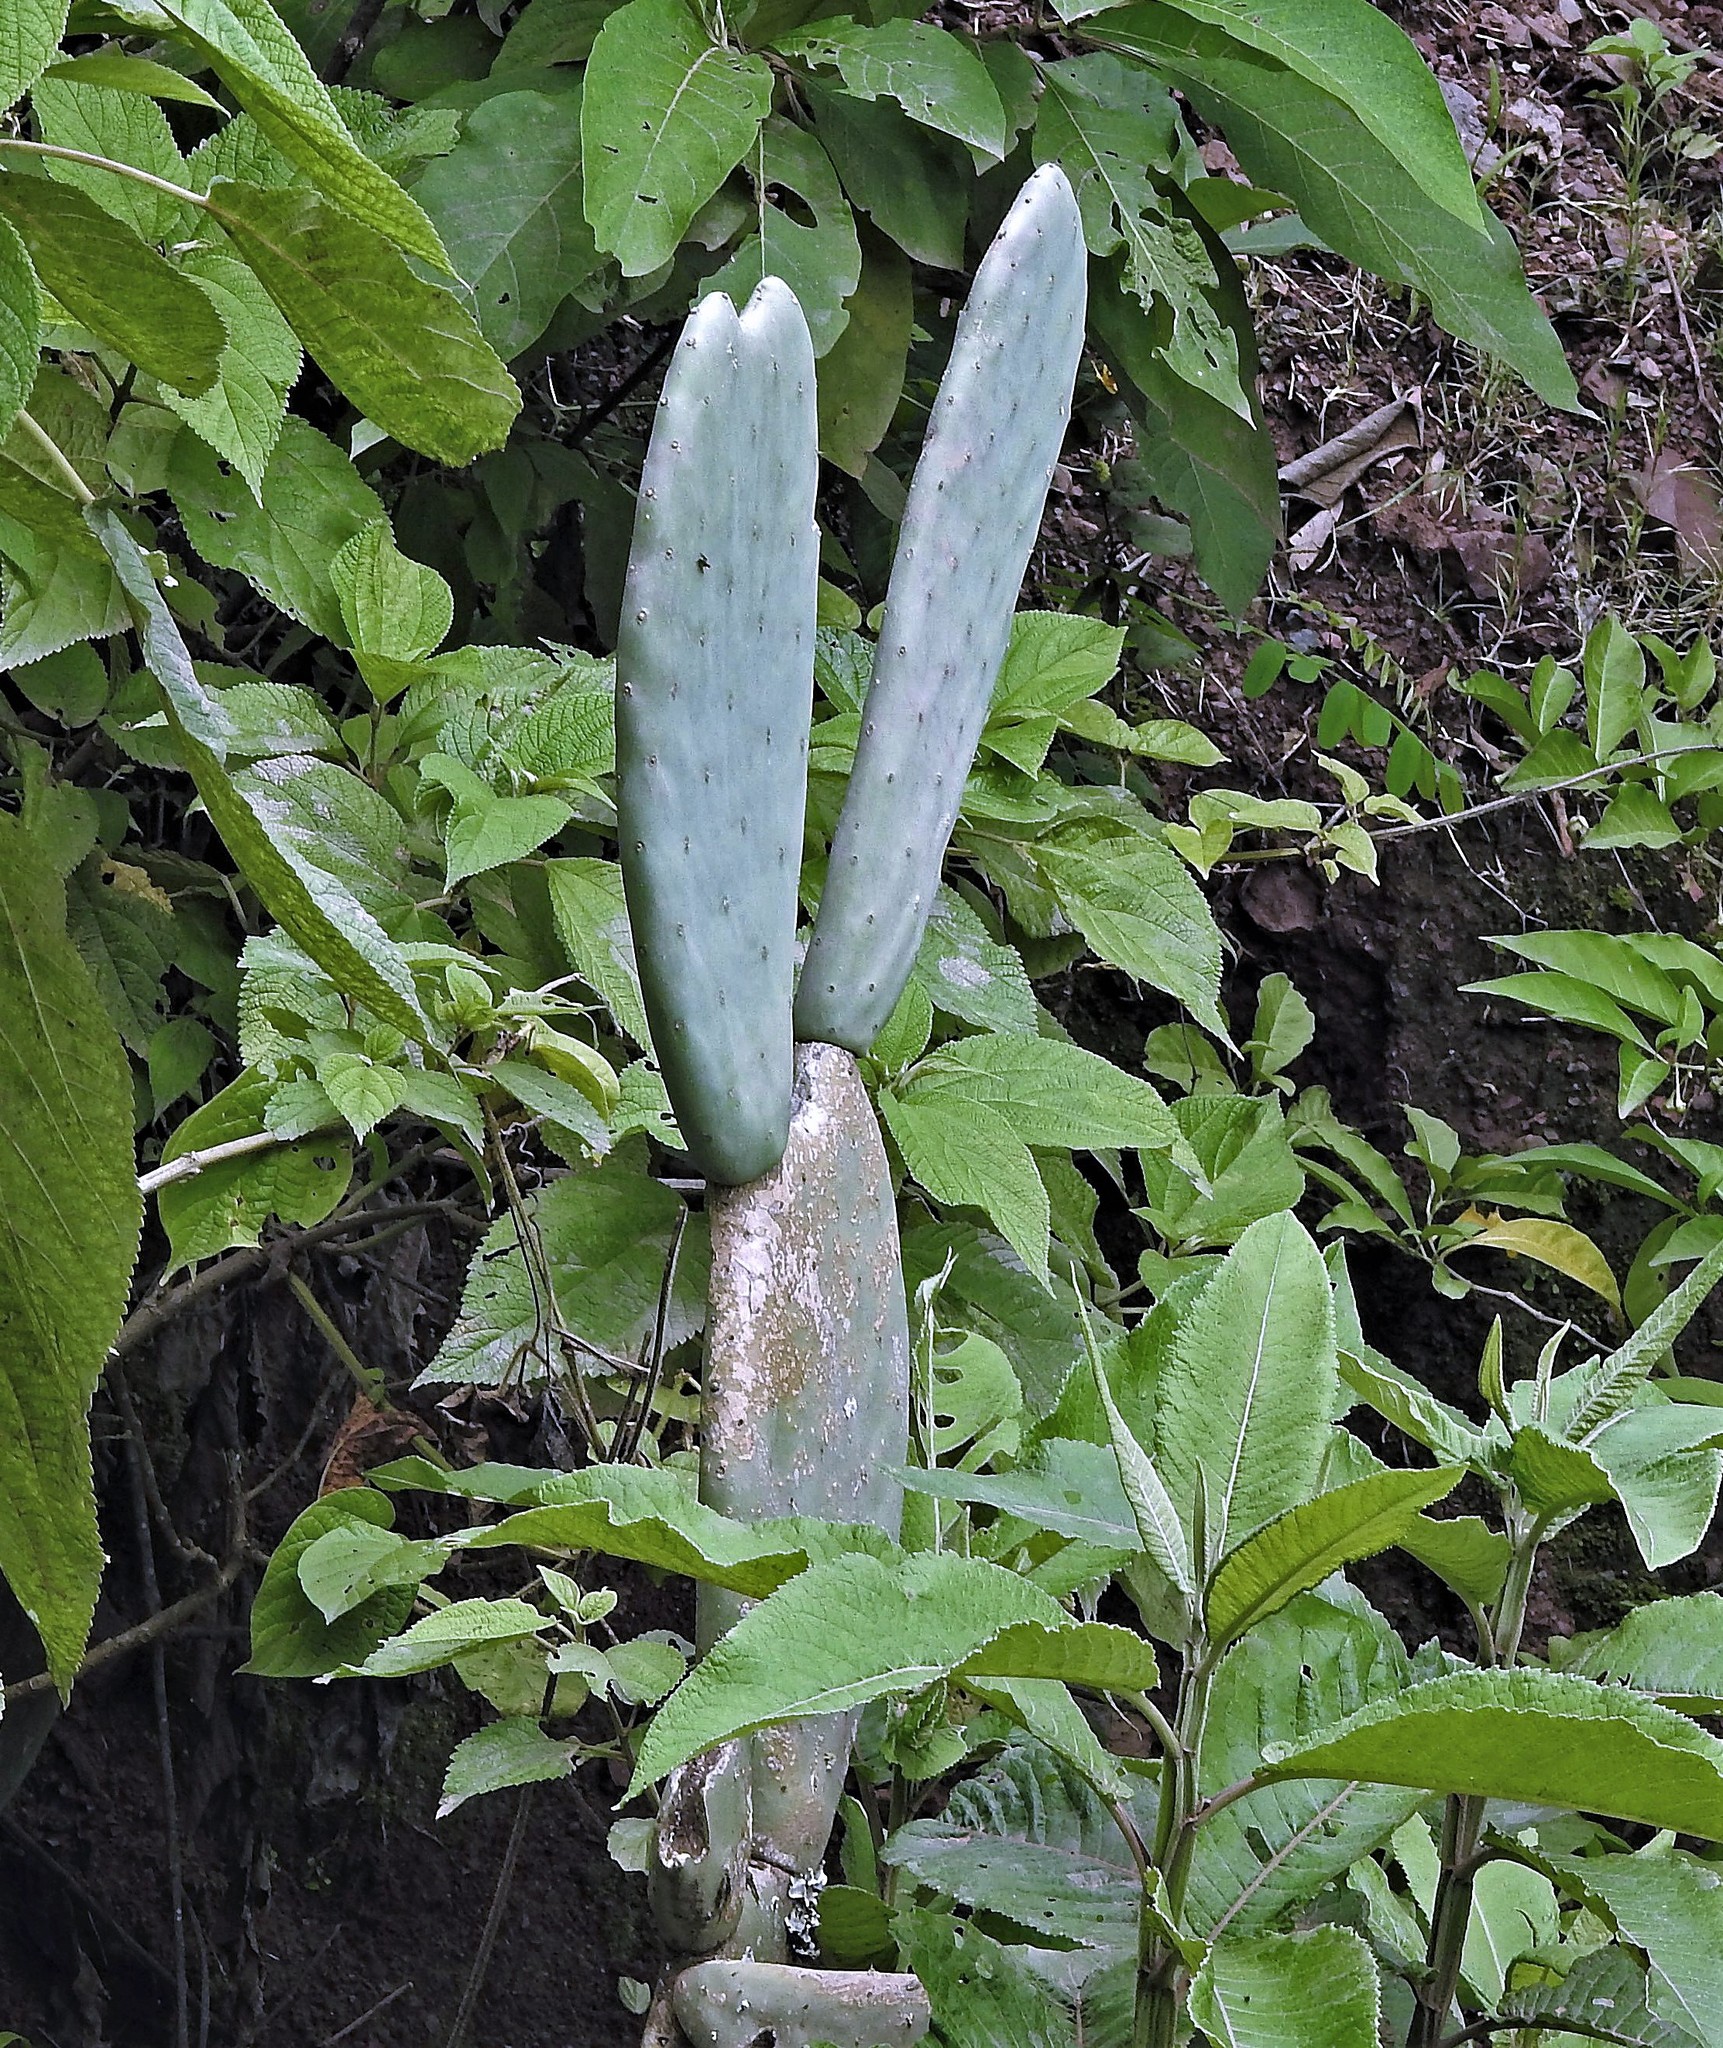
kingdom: Plantae
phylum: Tracheophyta
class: Magnoliopsida
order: Caryophyllales
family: Cactaceae
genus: Opuntia
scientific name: Opuntia ficus-indica
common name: Barbary fig
